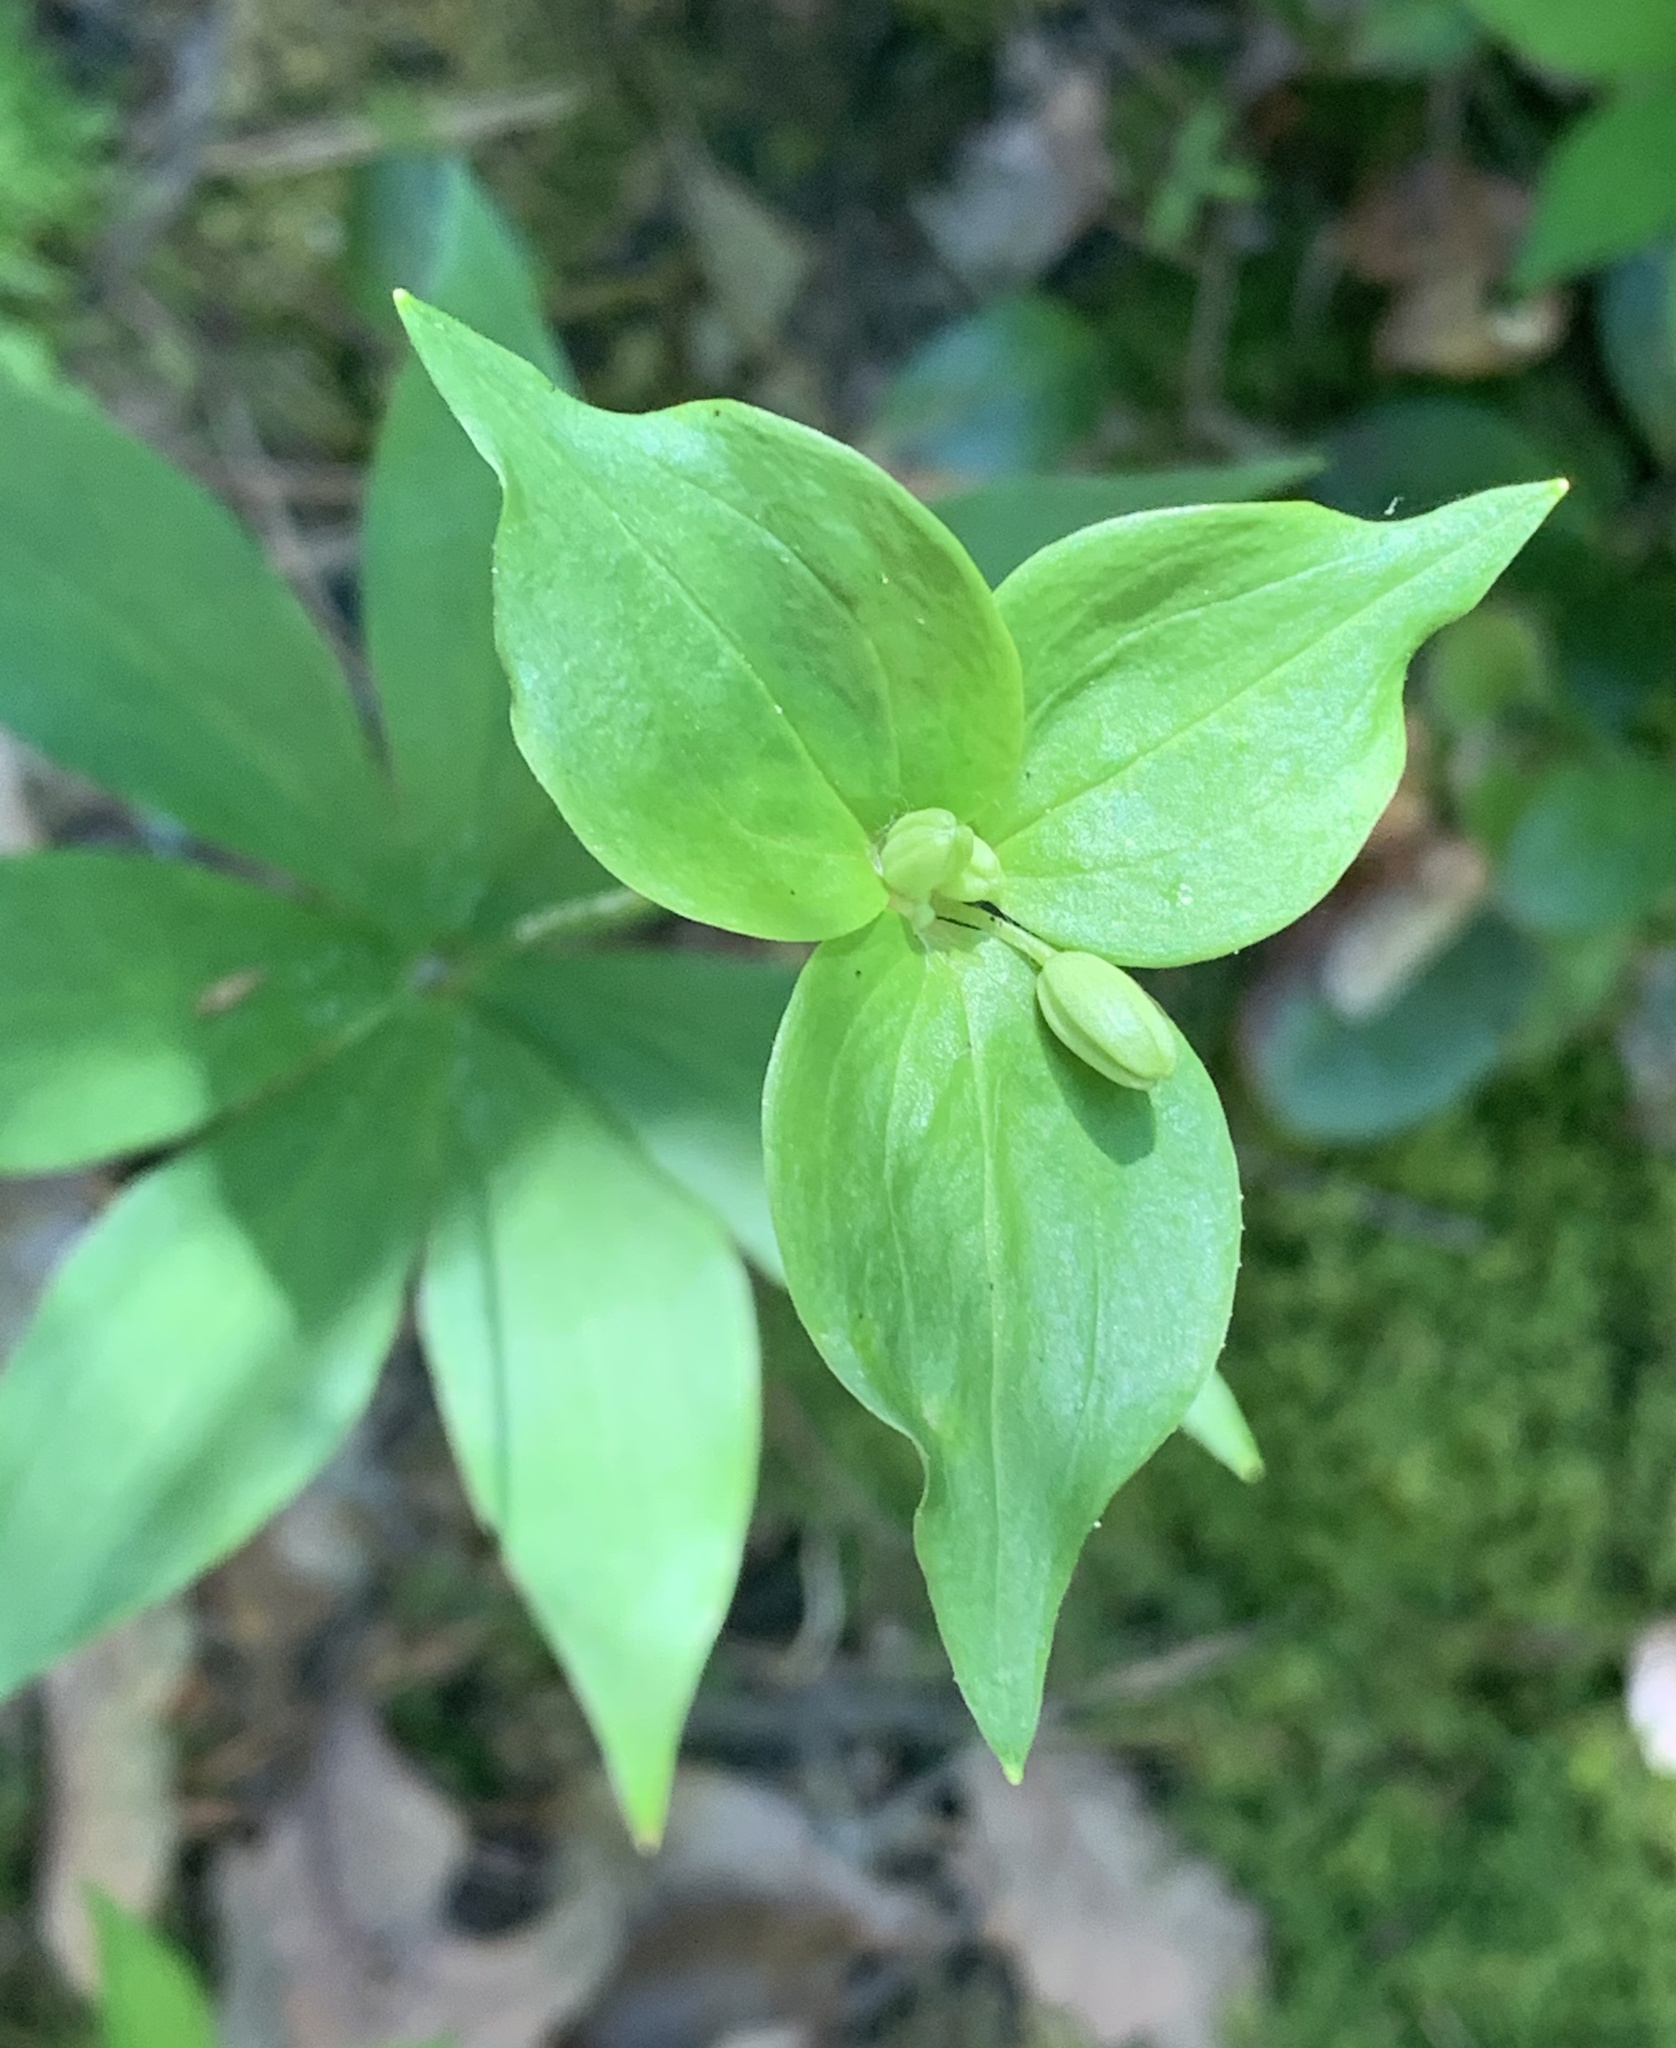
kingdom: Plantae
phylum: Tracheophyta
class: Liliopsida
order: Liliales
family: Liliaceae
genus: Medeola
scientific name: Medeola virginiana
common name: Indian cucumber-root
